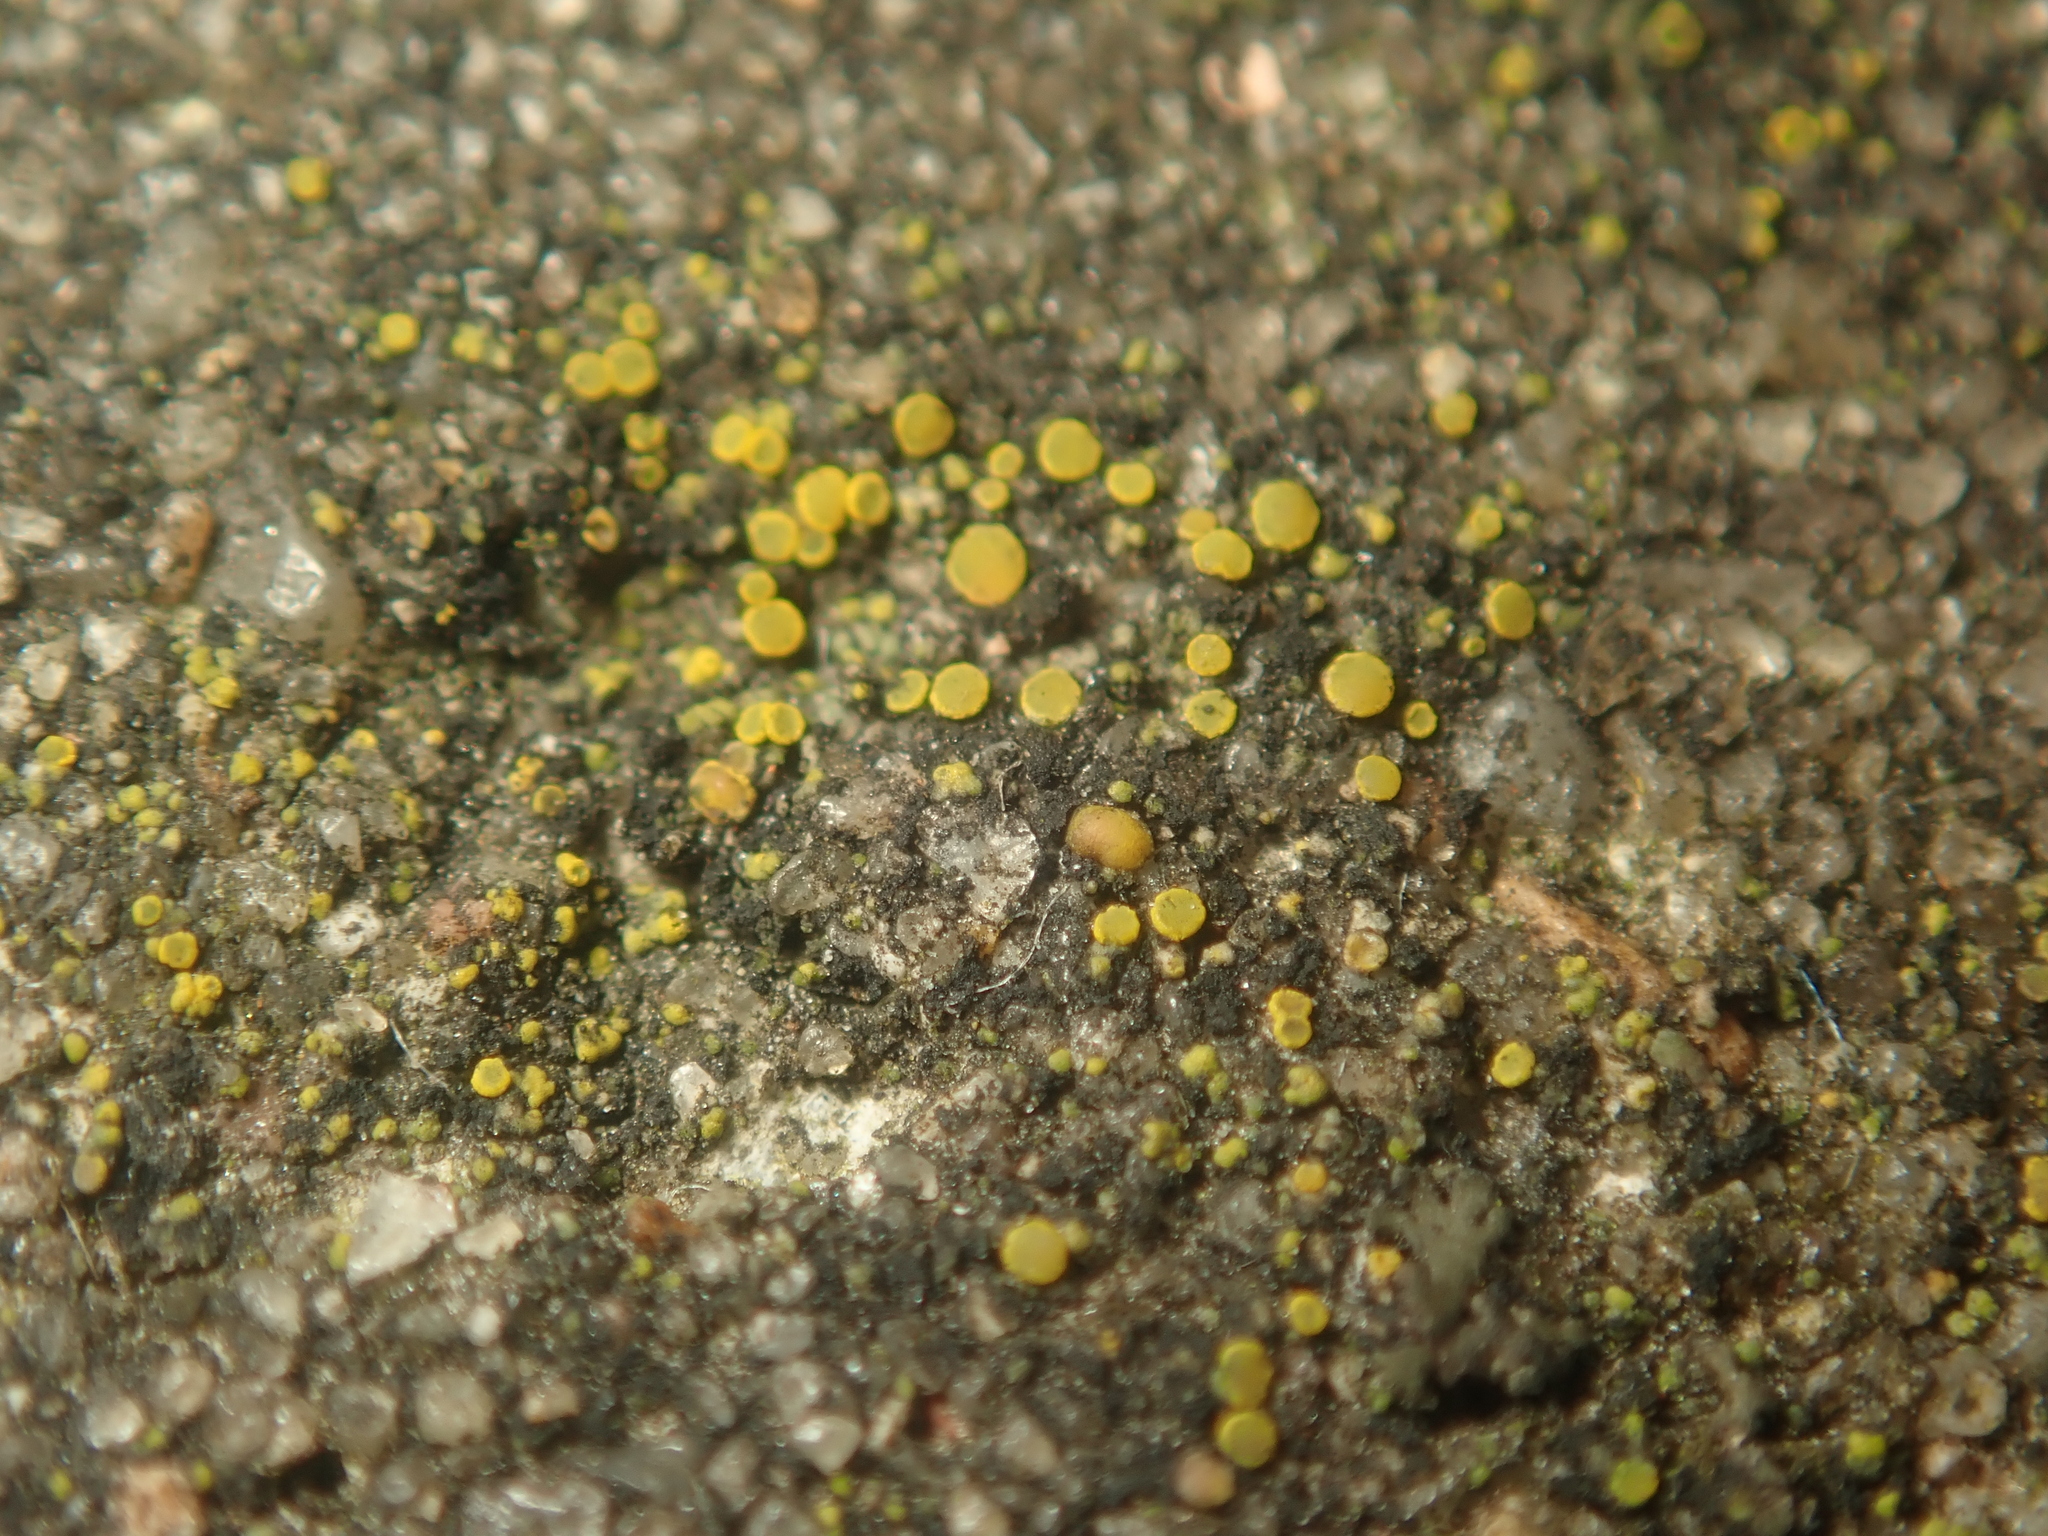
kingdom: Fungi
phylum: Ascomycota
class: Candelariomycetes
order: Candelariales
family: Candelariaceae
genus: Candelariella
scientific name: Candelariella aurella
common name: Hidden goldspeck lichen
